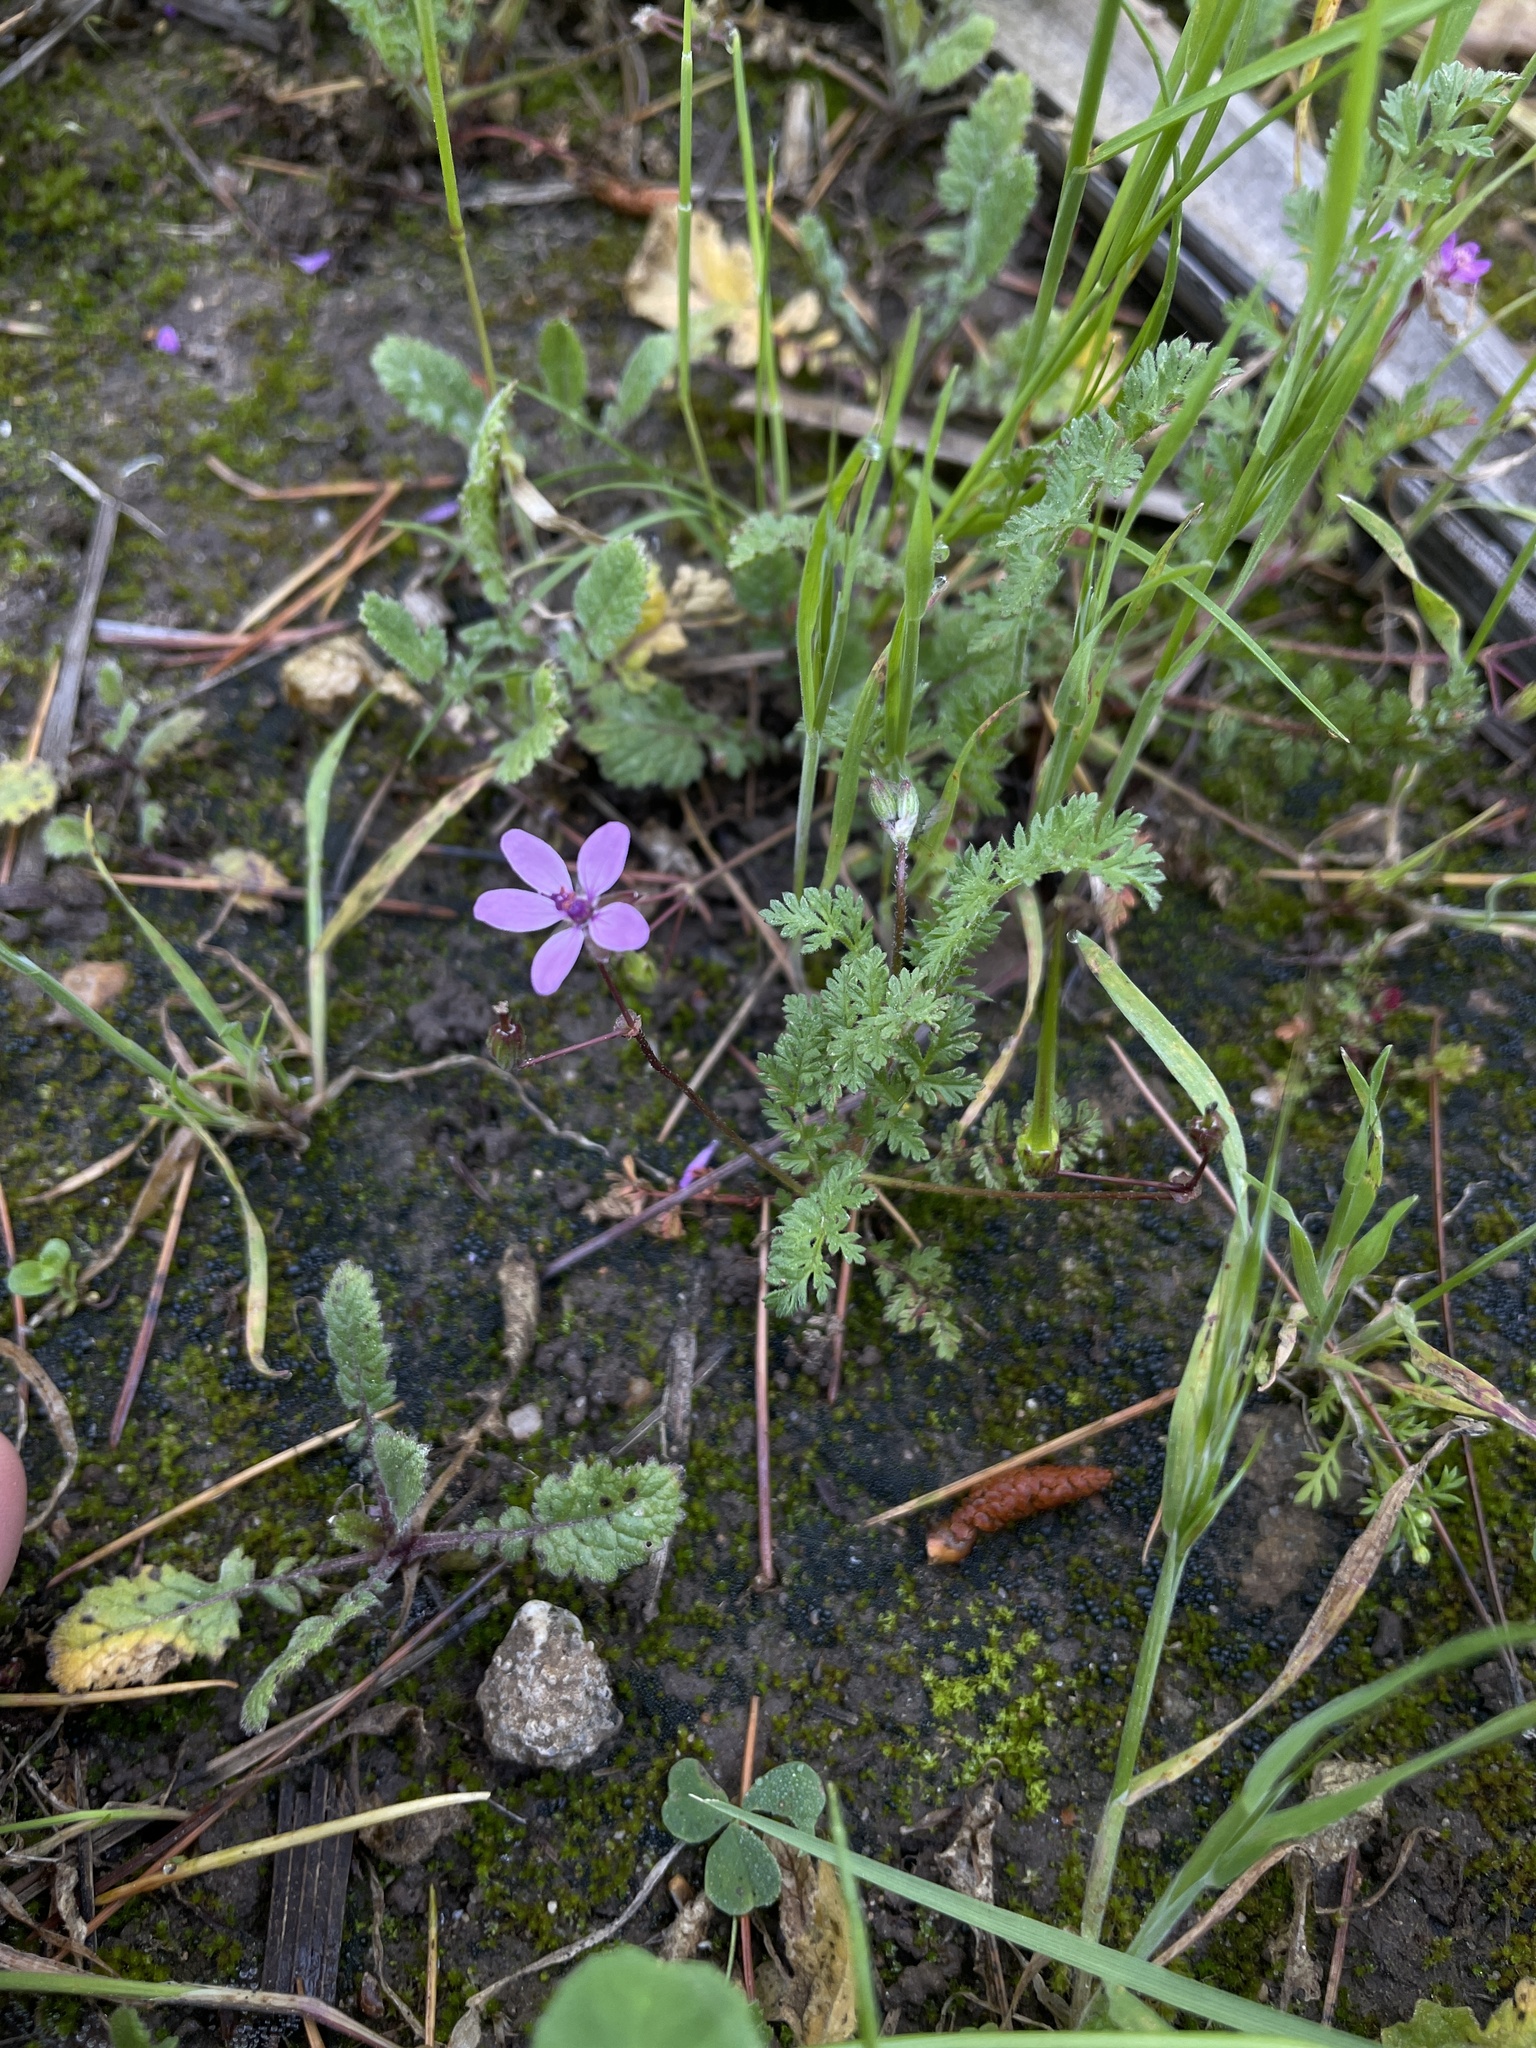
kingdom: Plantae
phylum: Tracheophyta
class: Magnoliopsida
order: Geraniales
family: Geraniaceae
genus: Erodium
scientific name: Erodium cicutarium
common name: Common stork's-bill
